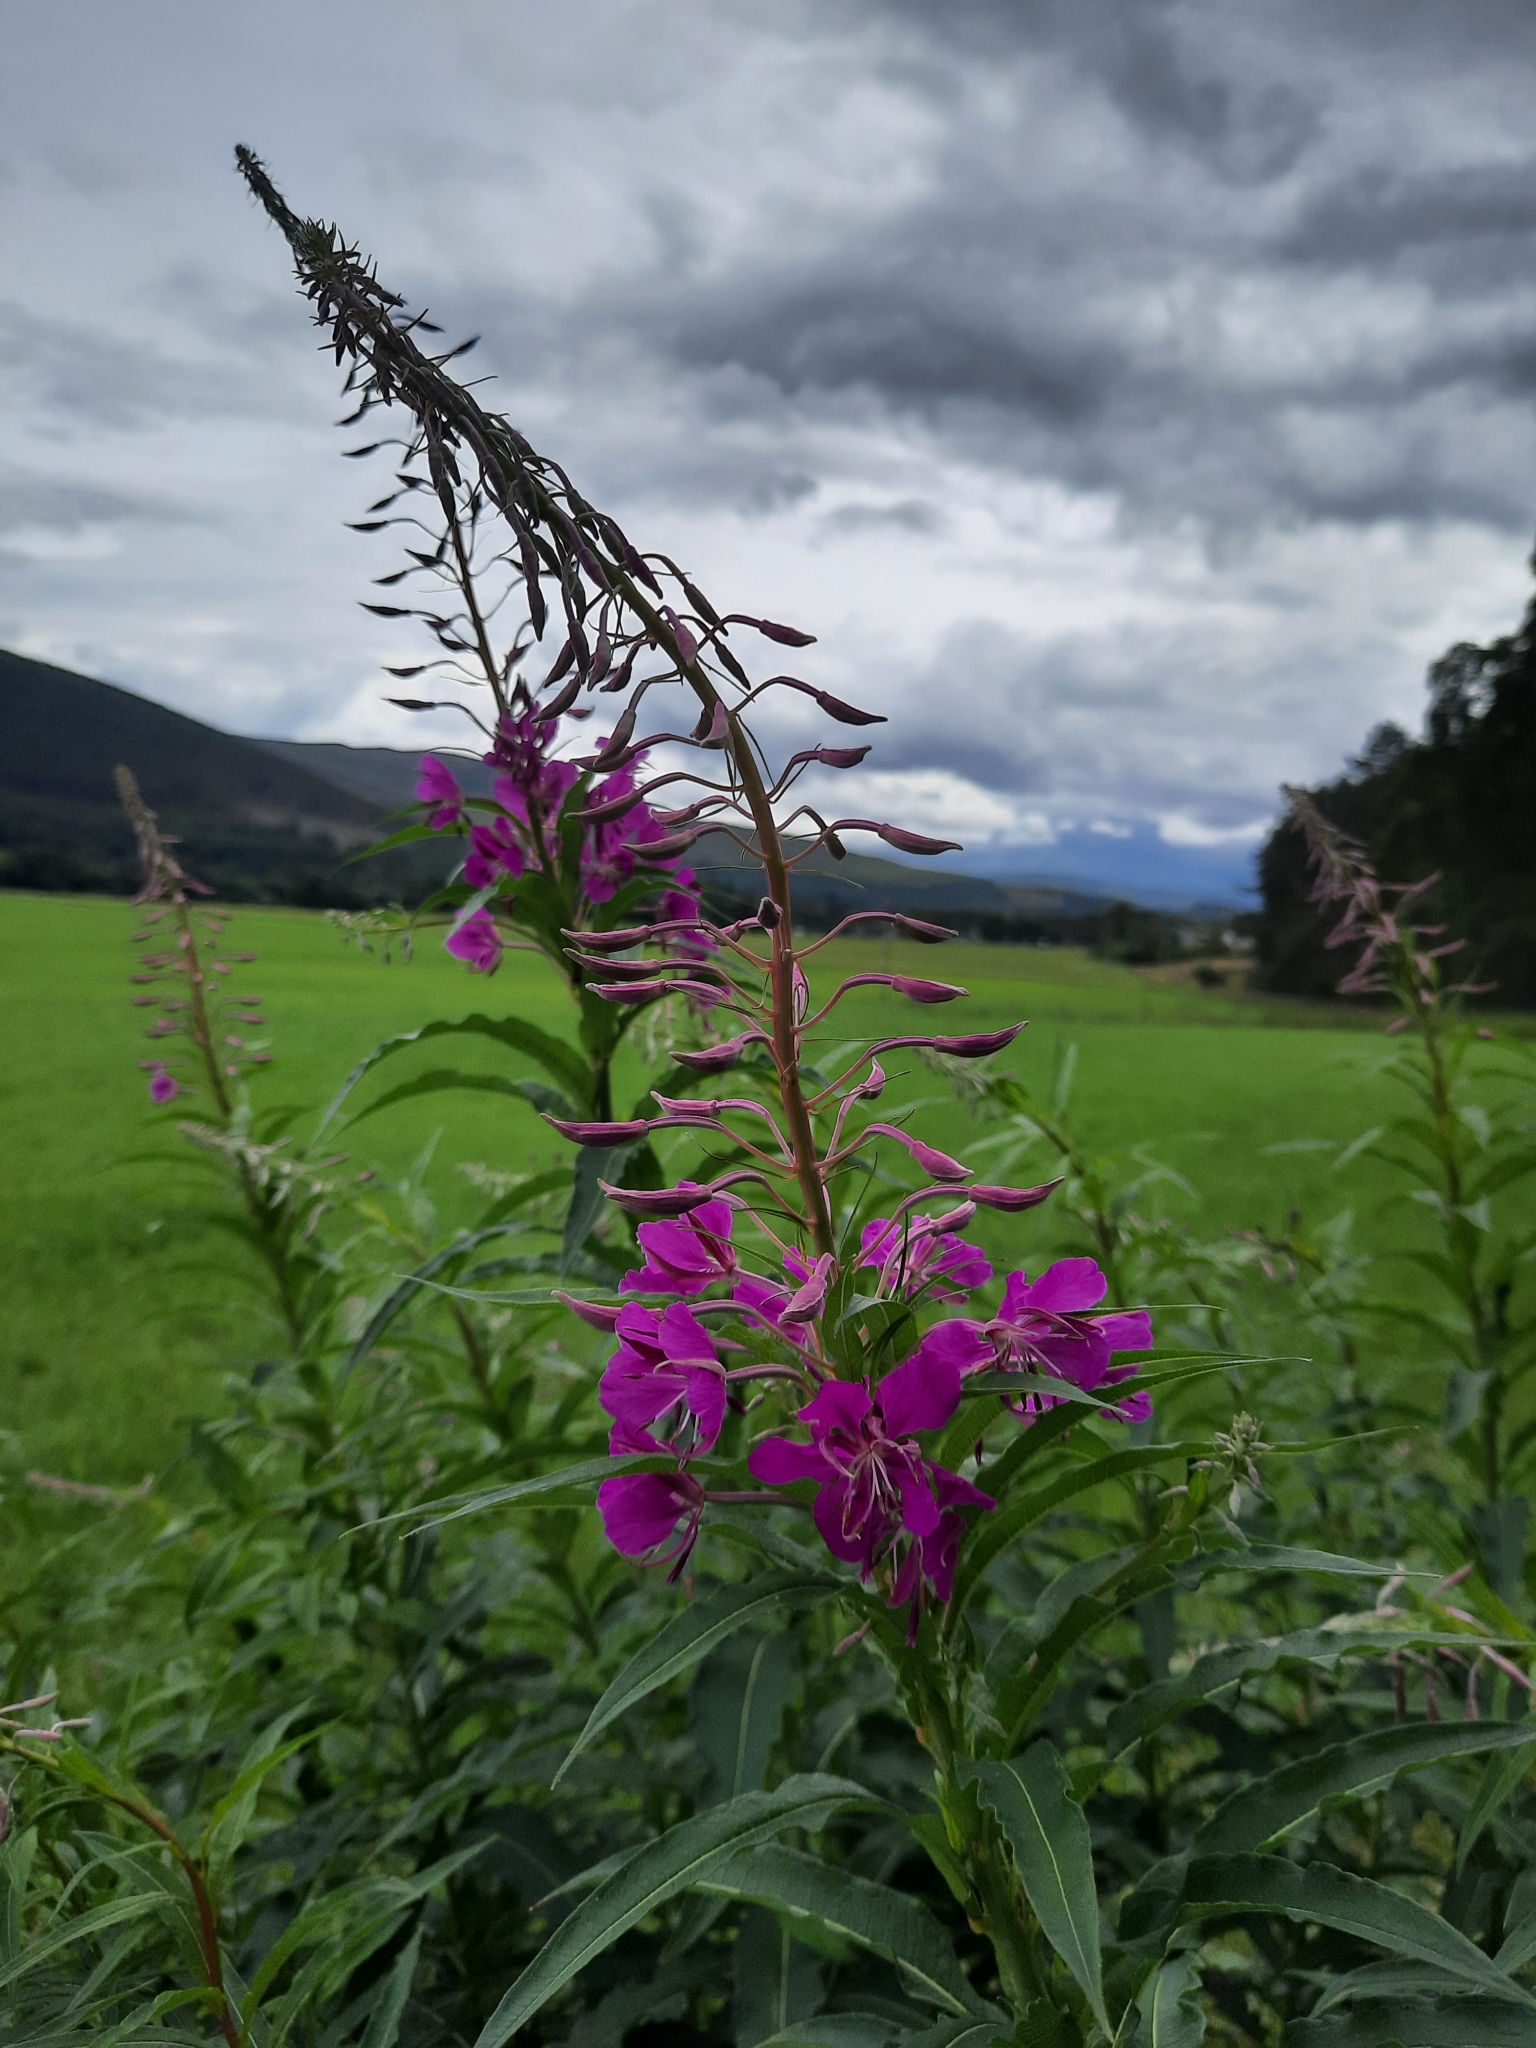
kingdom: Plantae
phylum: Tracheophyta
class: Magnoliopsida
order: Myrtales
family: Onagraceae
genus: Chamaenerion
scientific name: Chamaenerion angustifolium
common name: Fireweed
